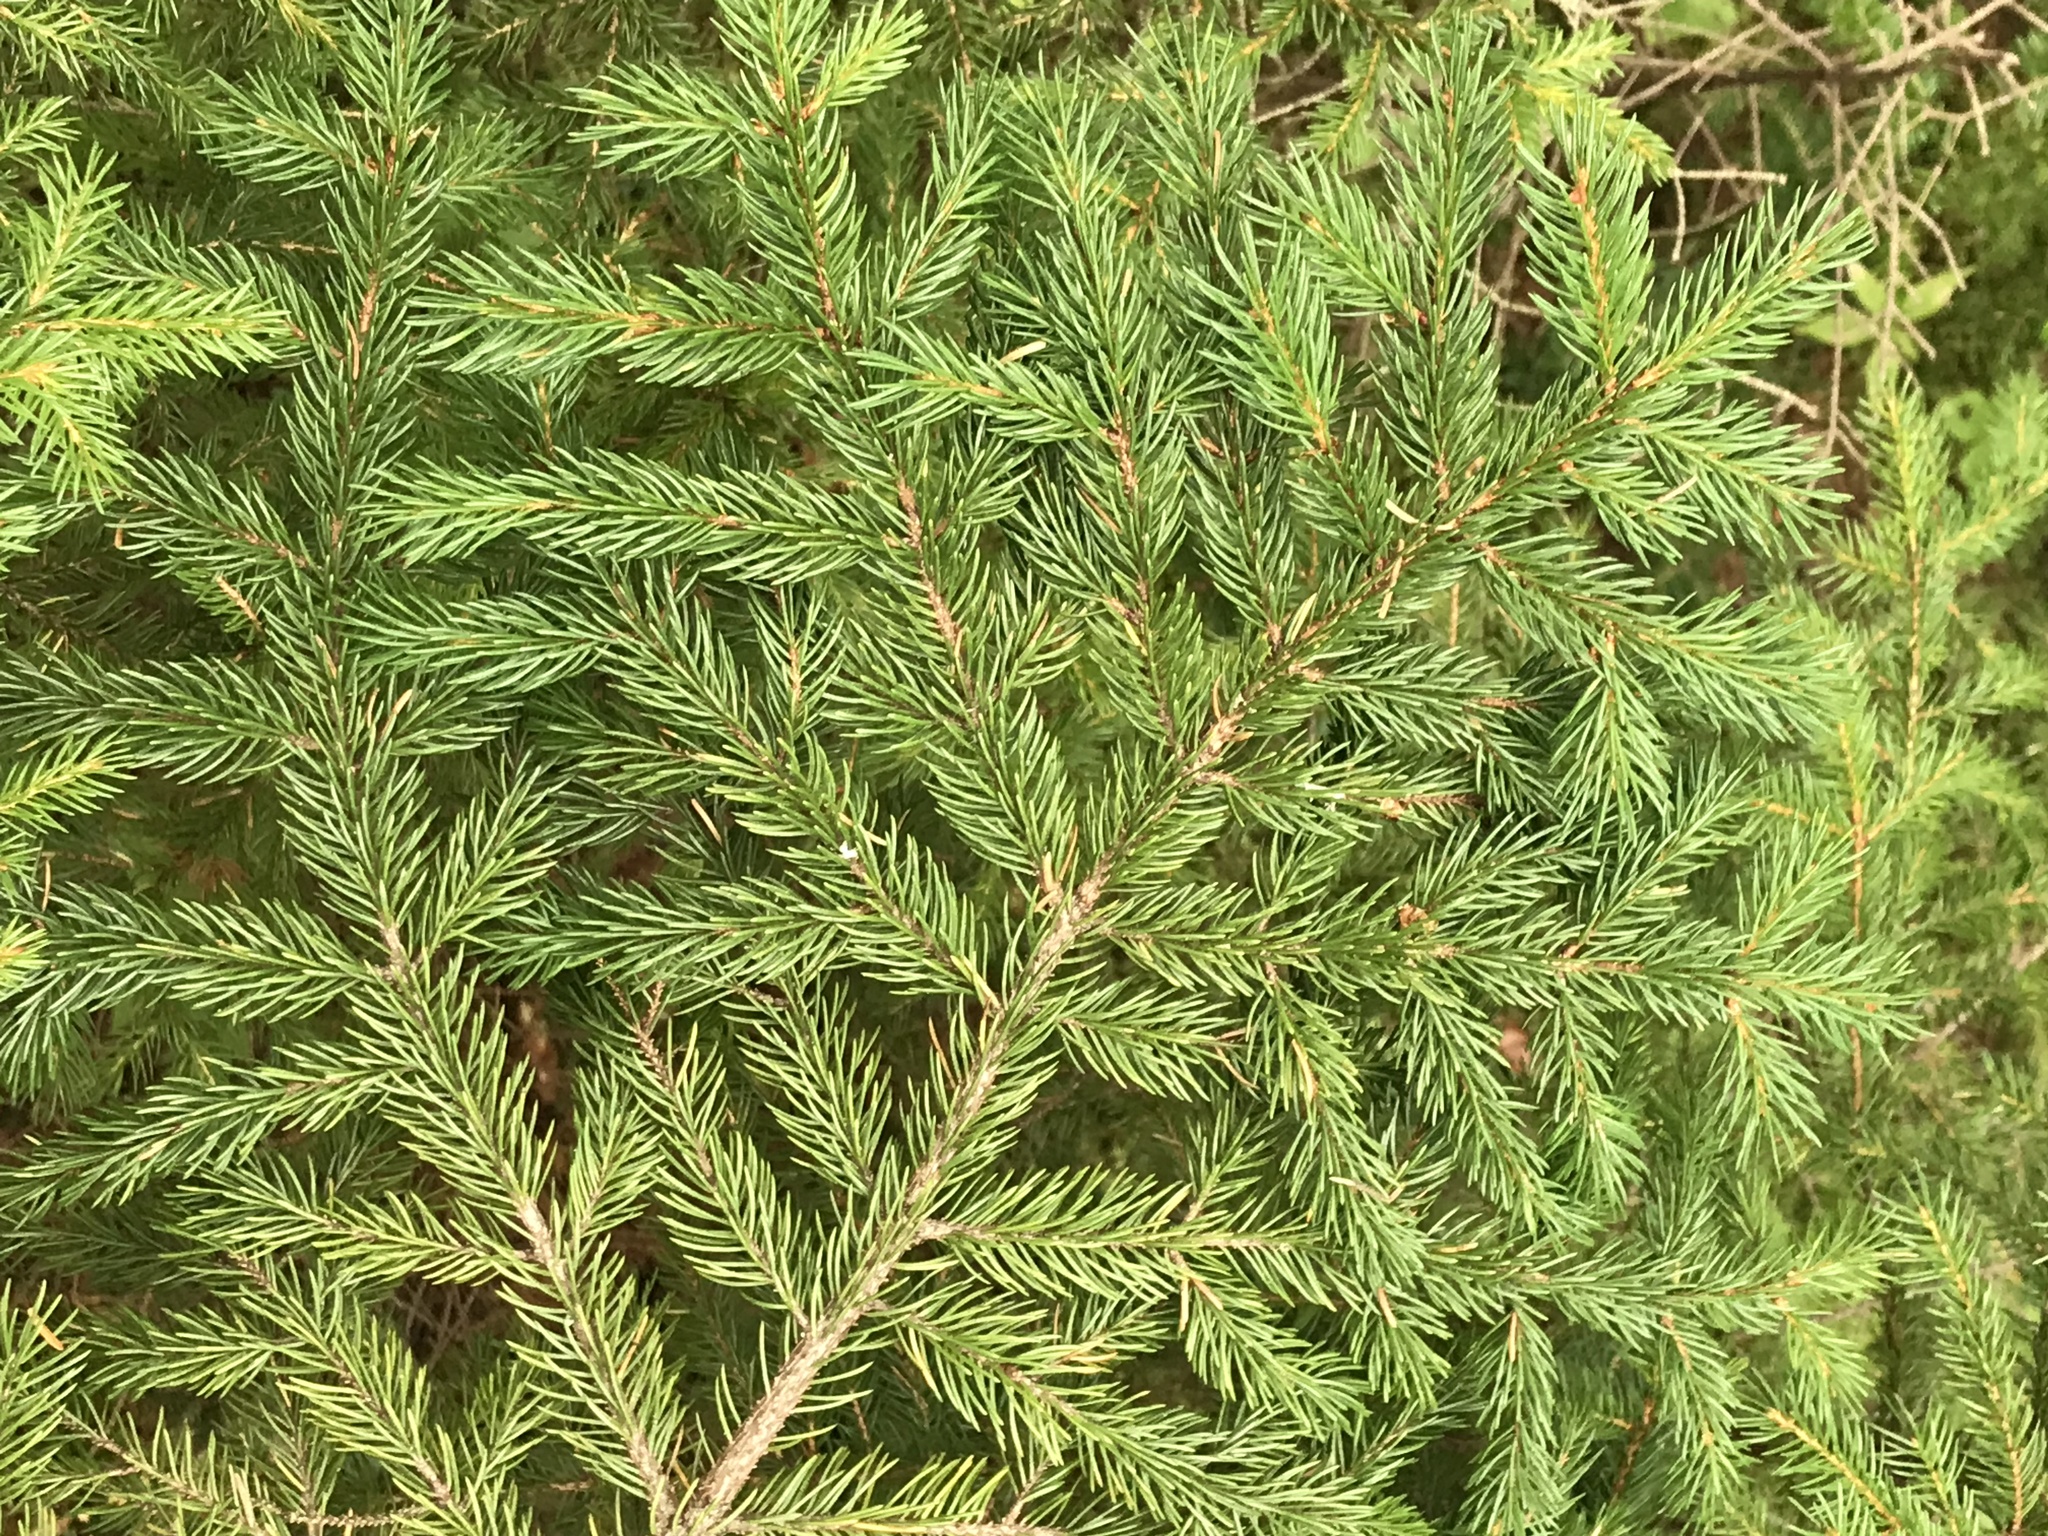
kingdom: Plantae
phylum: Tracheophyta
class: Pinopsida
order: Pinales
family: Pinaceae
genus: Picea
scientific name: Picea rubens
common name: Red spruce
